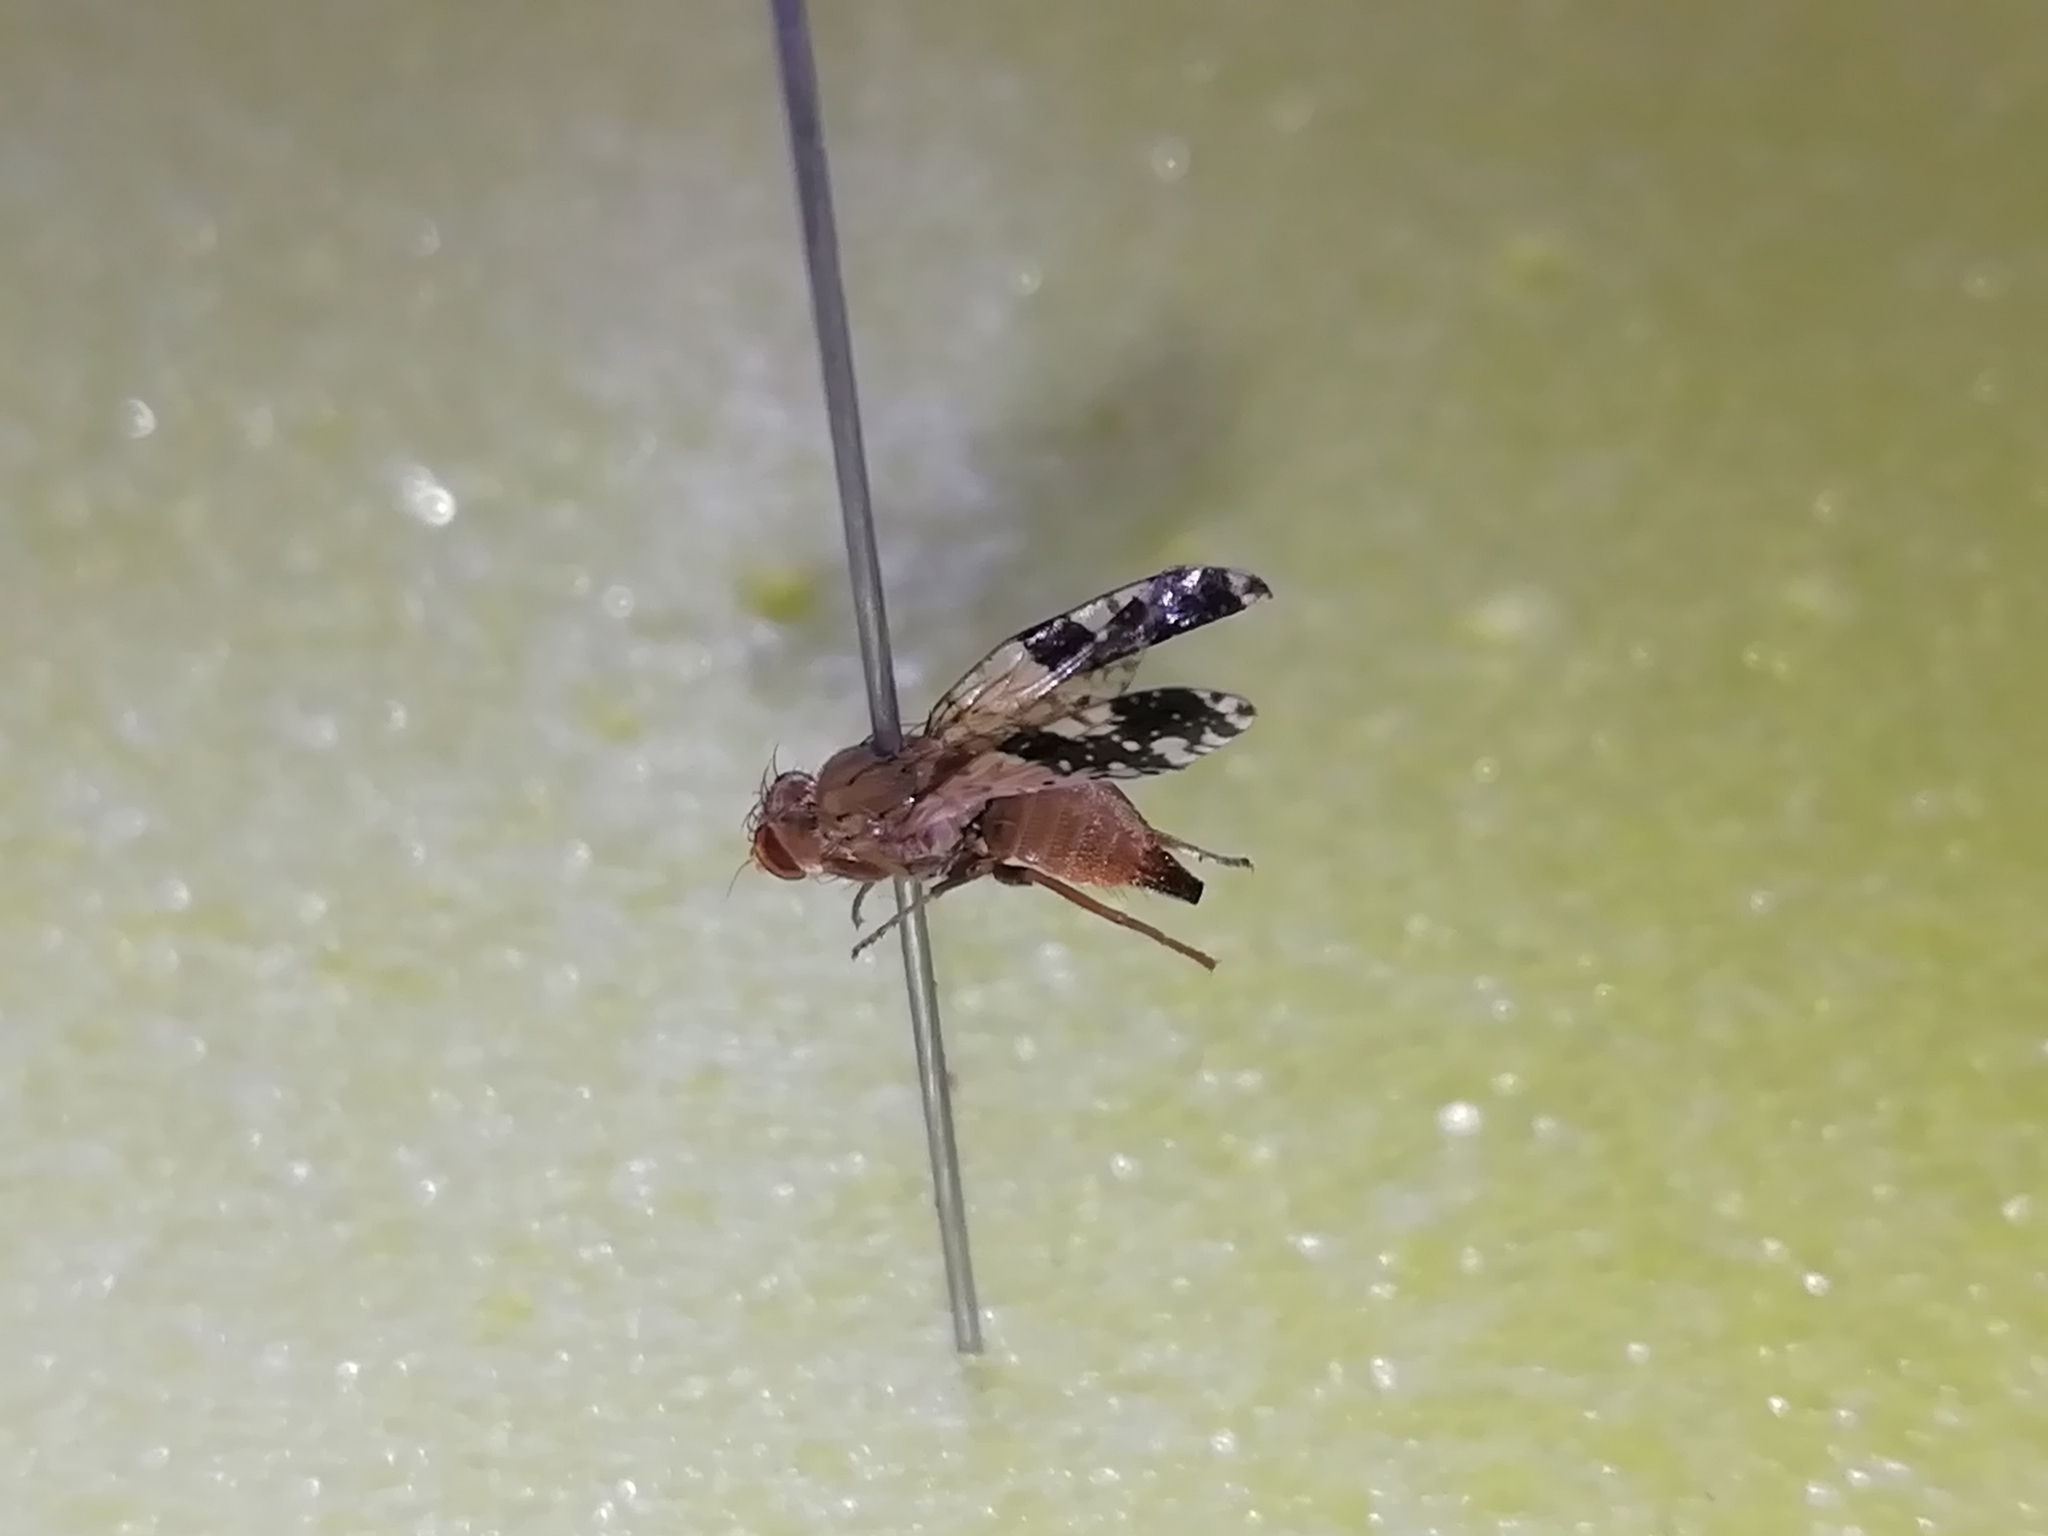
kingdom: Animalia
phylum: Arthropoda
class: Insecta
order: Diptera
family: Tephritidae
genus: Tephritis
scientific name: Tephritis bardanae
